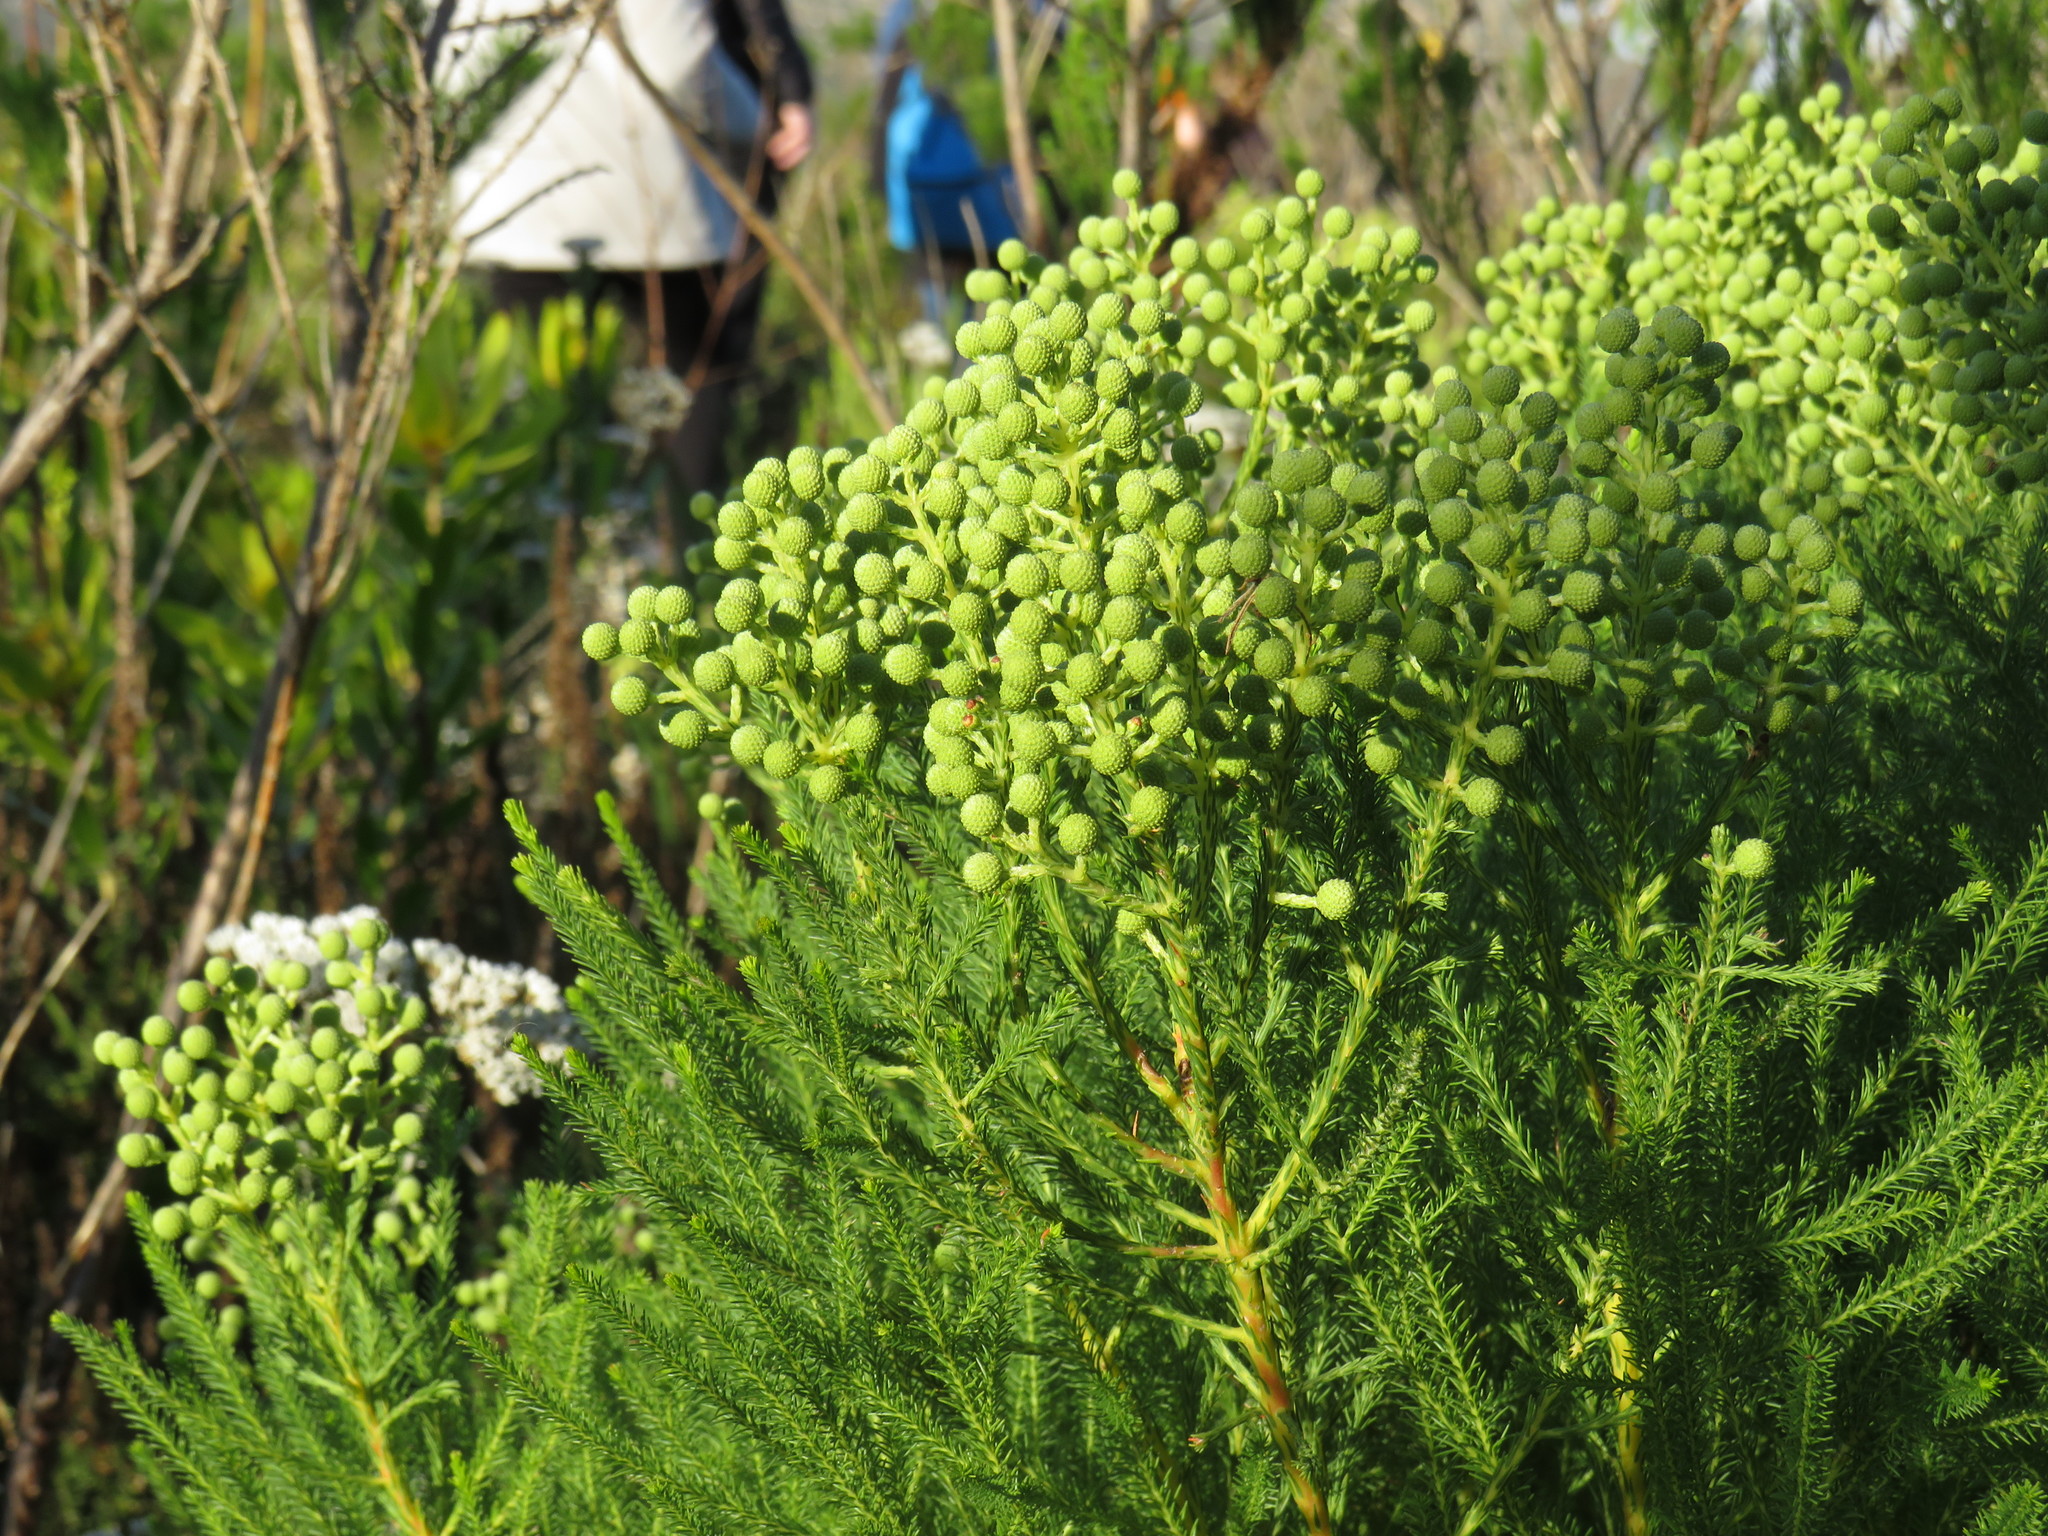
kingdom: Plantae
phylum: Tracheophyta
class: Magnoliopsida
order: Bruniales
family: Bruniaceae
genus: Berzelia
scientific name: Berzelia lanuginosa
